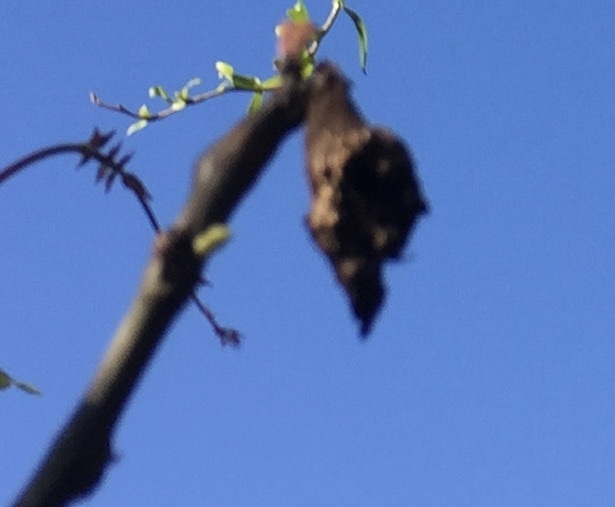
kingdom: Animalia
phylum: Chordata
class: Aves
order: Accipitriformes
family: Accipitridae
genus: Accipiter
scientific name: Accipiter cooperii
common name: Cooper's hawk
